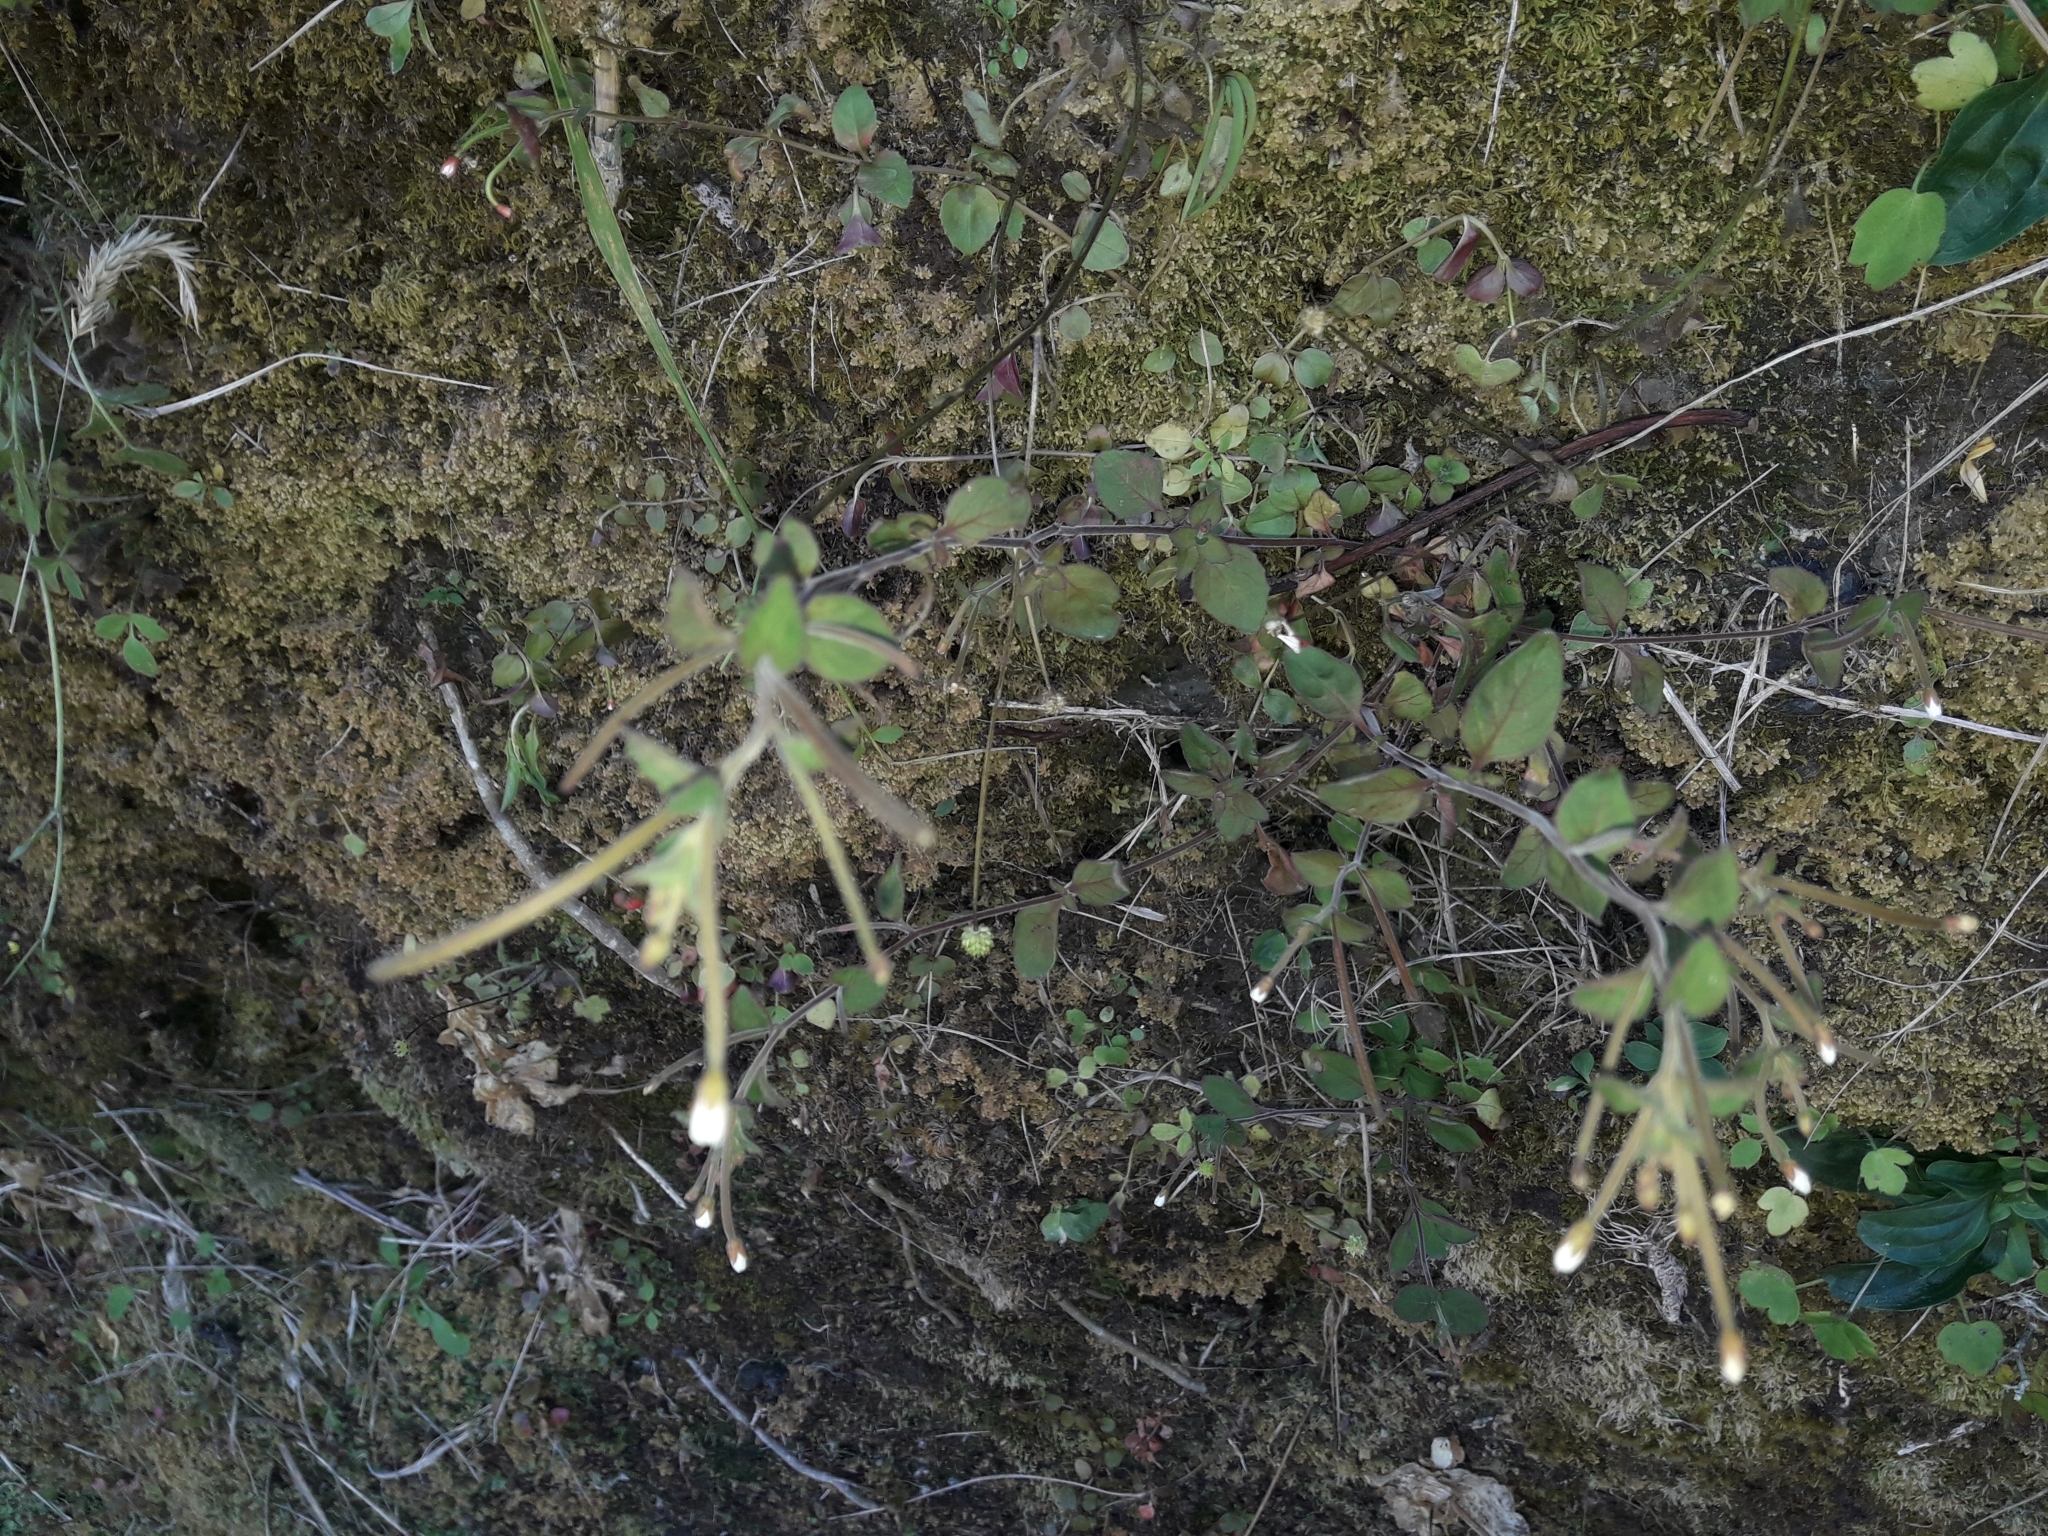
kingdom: Plantae
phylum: Tracheophyta
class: Magnoliopsida
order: Myrtales
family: Onagraceae
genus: Epilobium
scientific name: Epilobium pubens
